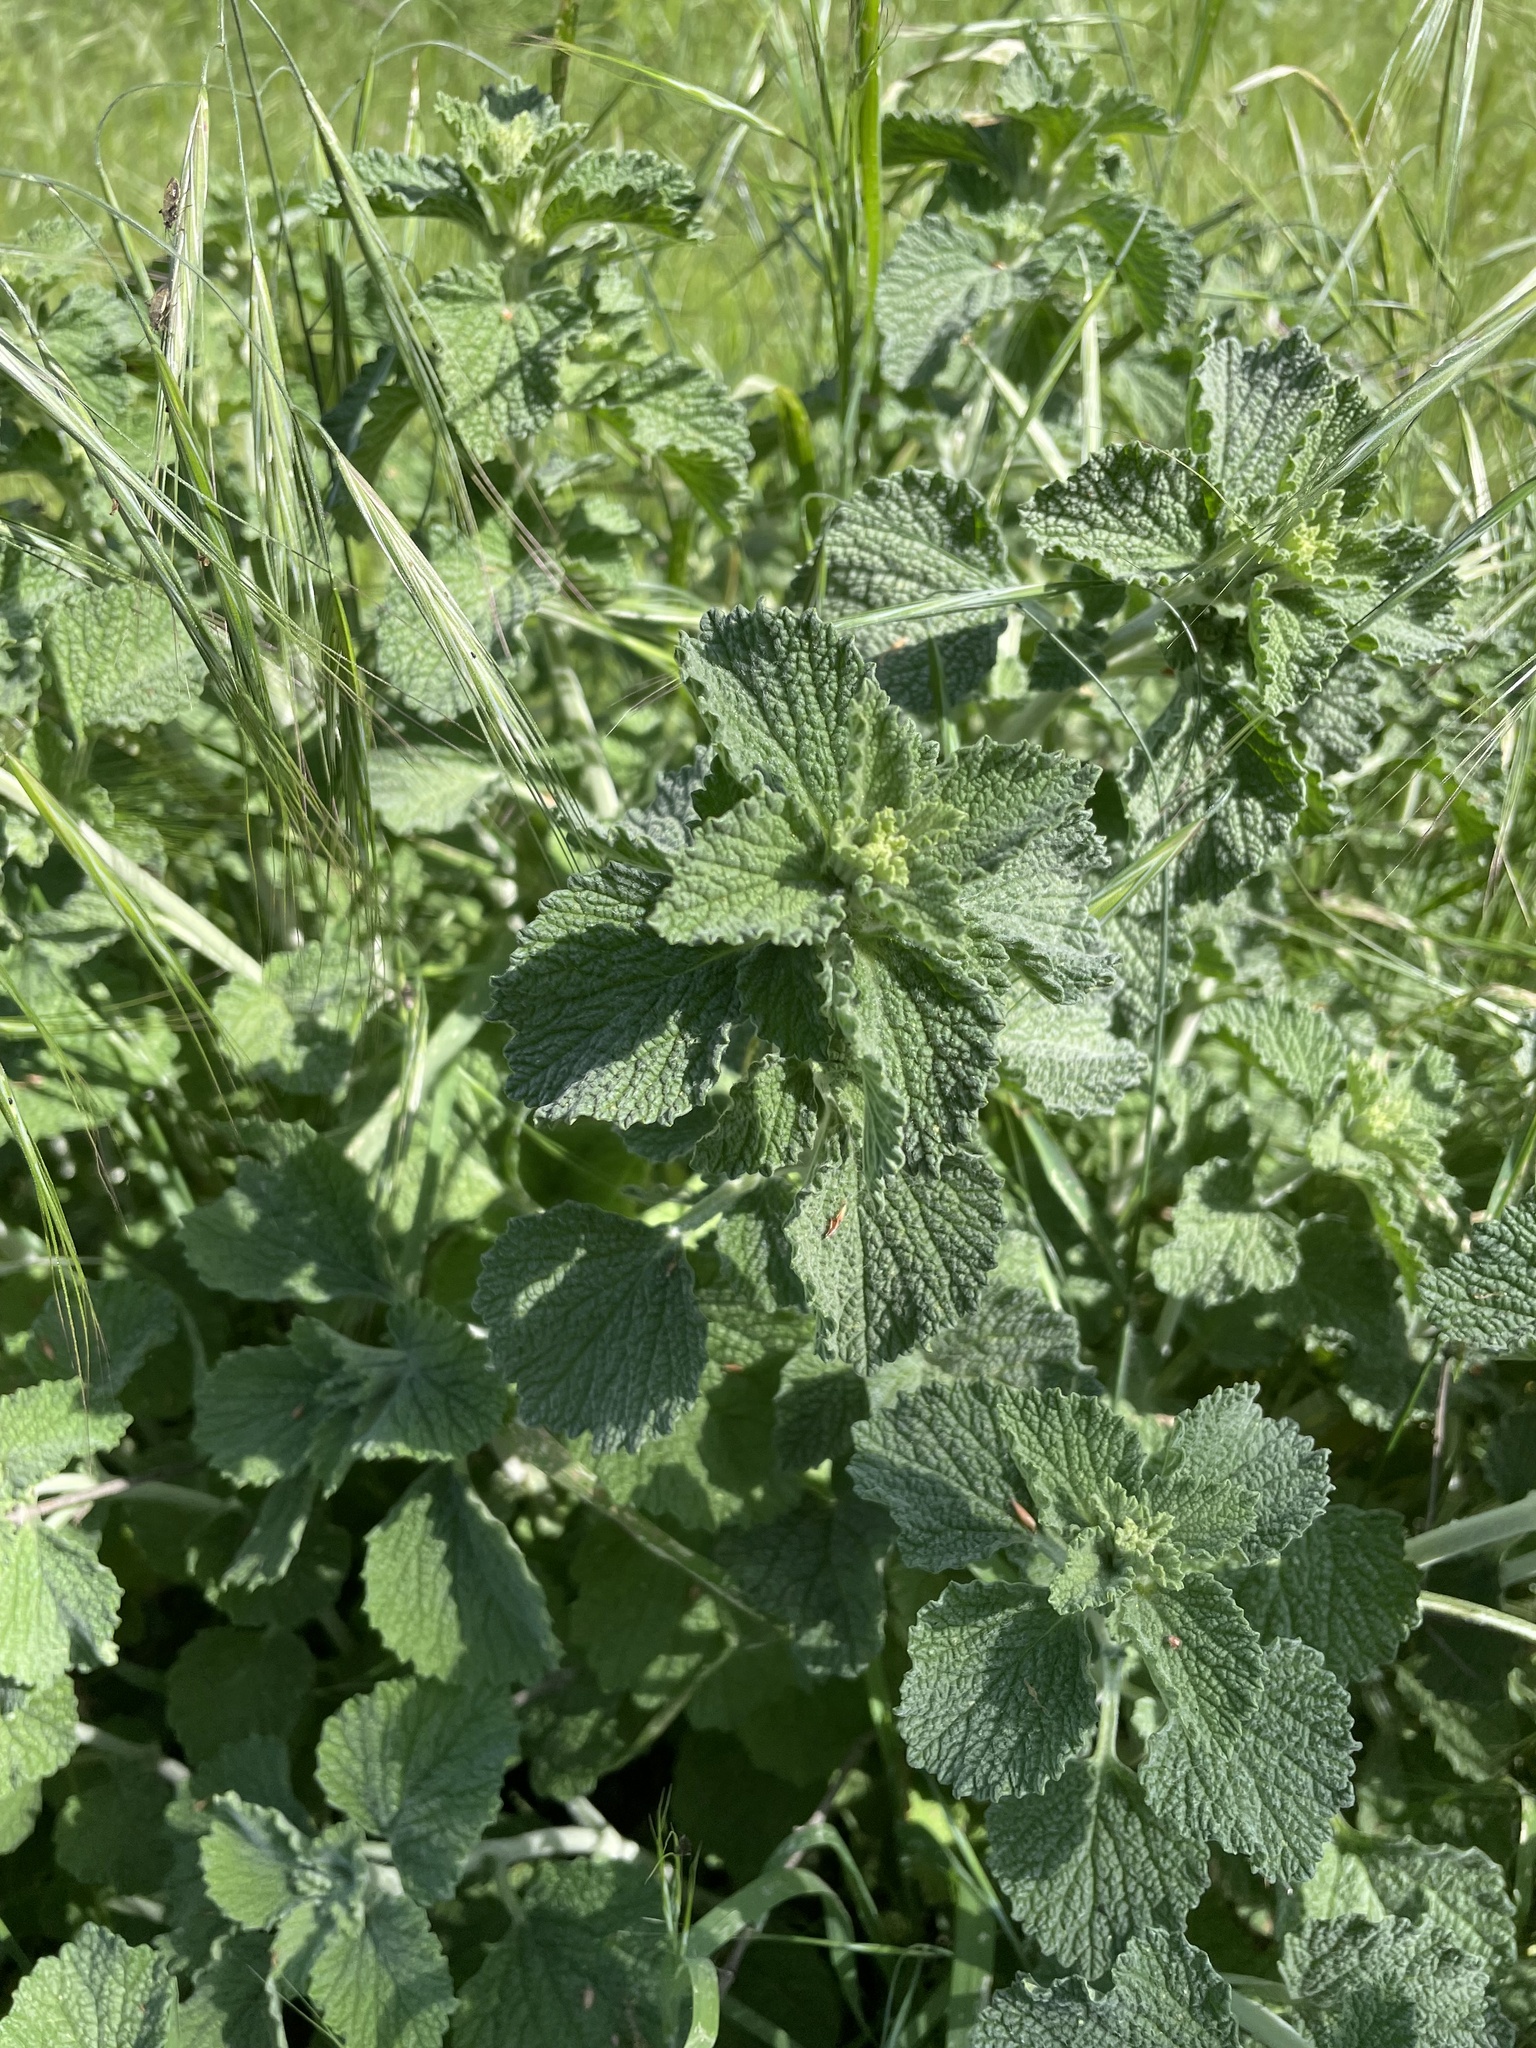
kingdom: Plantae
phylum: Tracheophyta
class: Magnoliopsida
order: Lamiales
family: Lamiaceae
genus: Marrubium
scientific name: Marrubium vulgare
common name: Horehound
